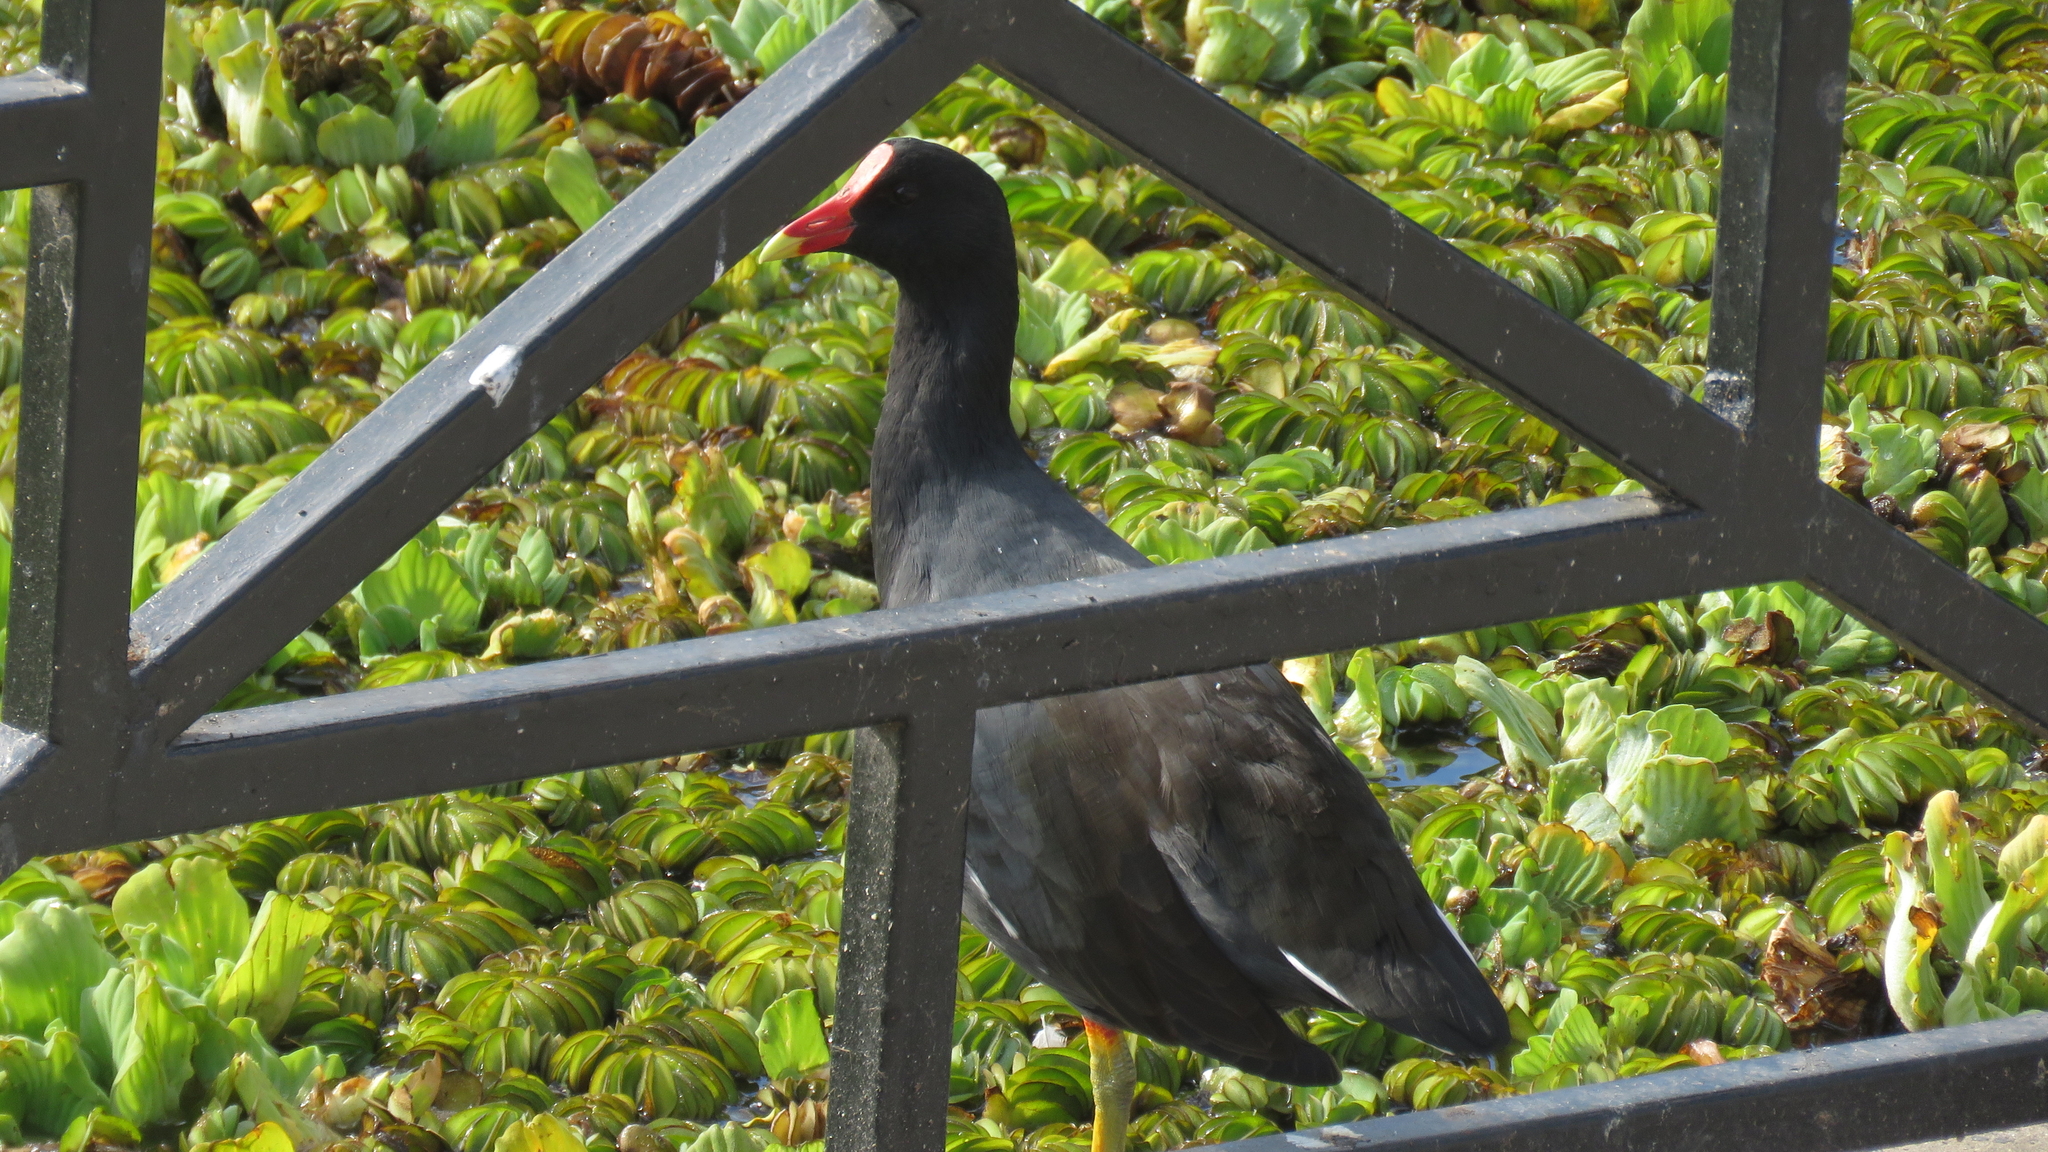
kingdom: Animalia
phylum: Chordata
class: Aves
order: Gruiformes
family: Rallidae
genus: Gallinula
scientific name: Gallinula chloropus
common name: Common moorhen
